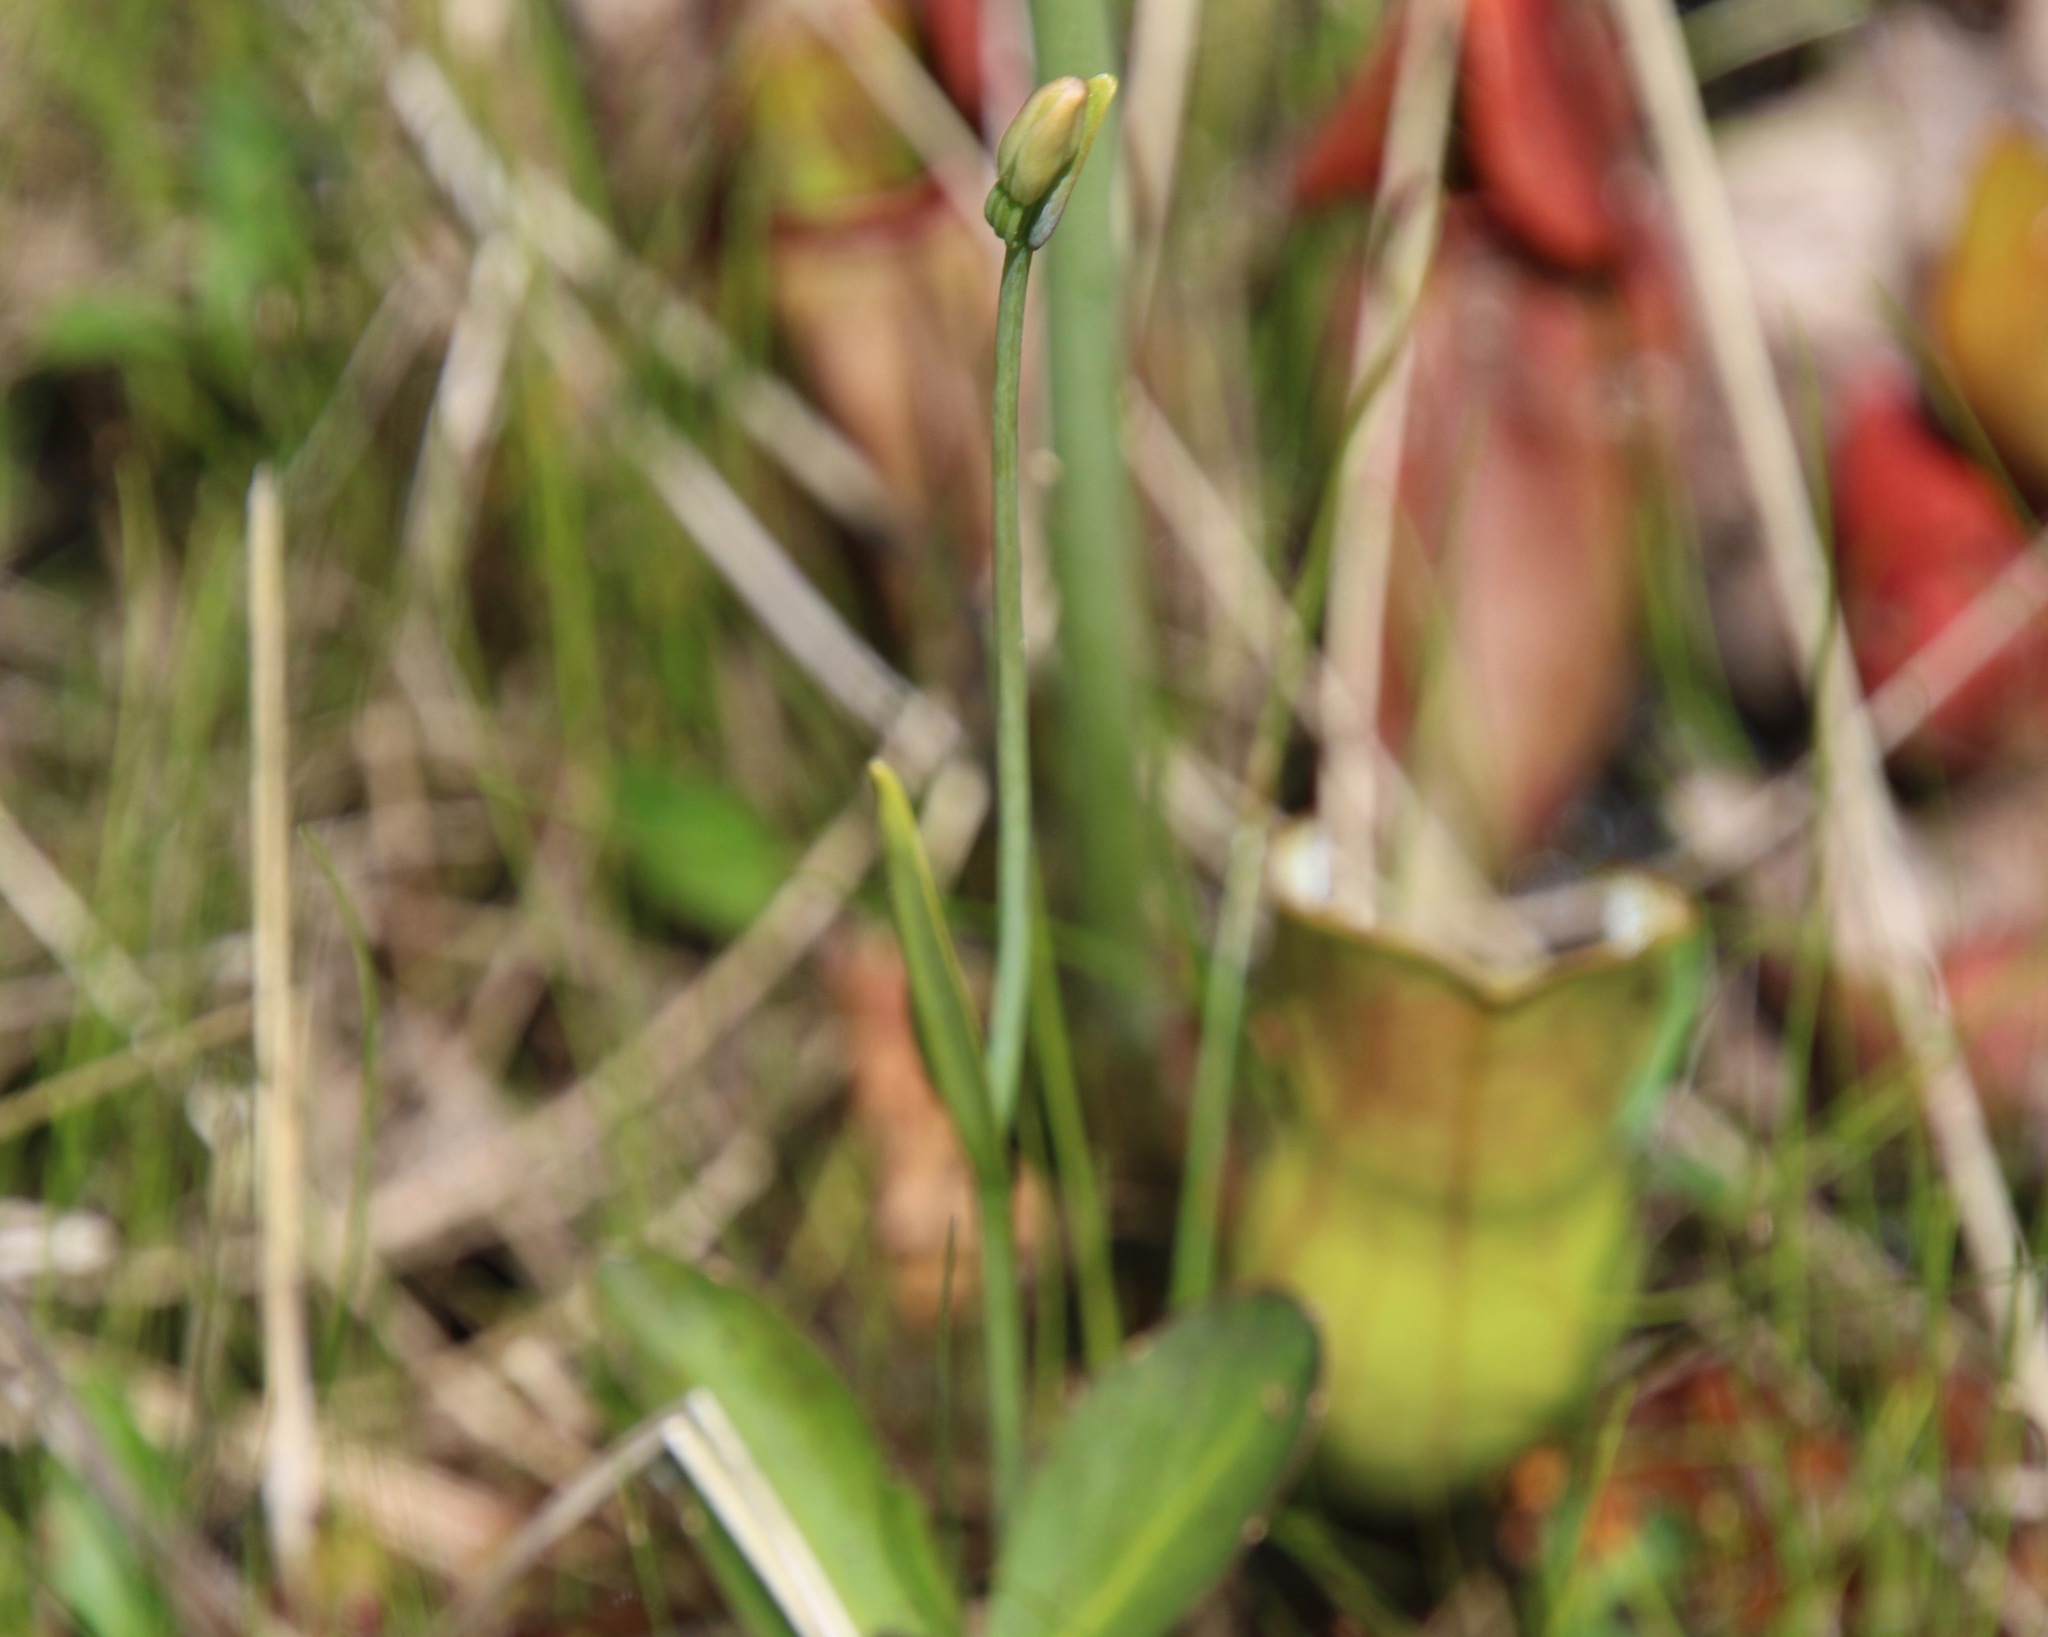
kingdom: Plantae
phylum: Tracheophyta
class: Liliopsida
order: Asparagales
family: Orchidaceae
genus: Pogonia
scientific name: Pogonia ophioglossoides
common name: Rose pogonia
